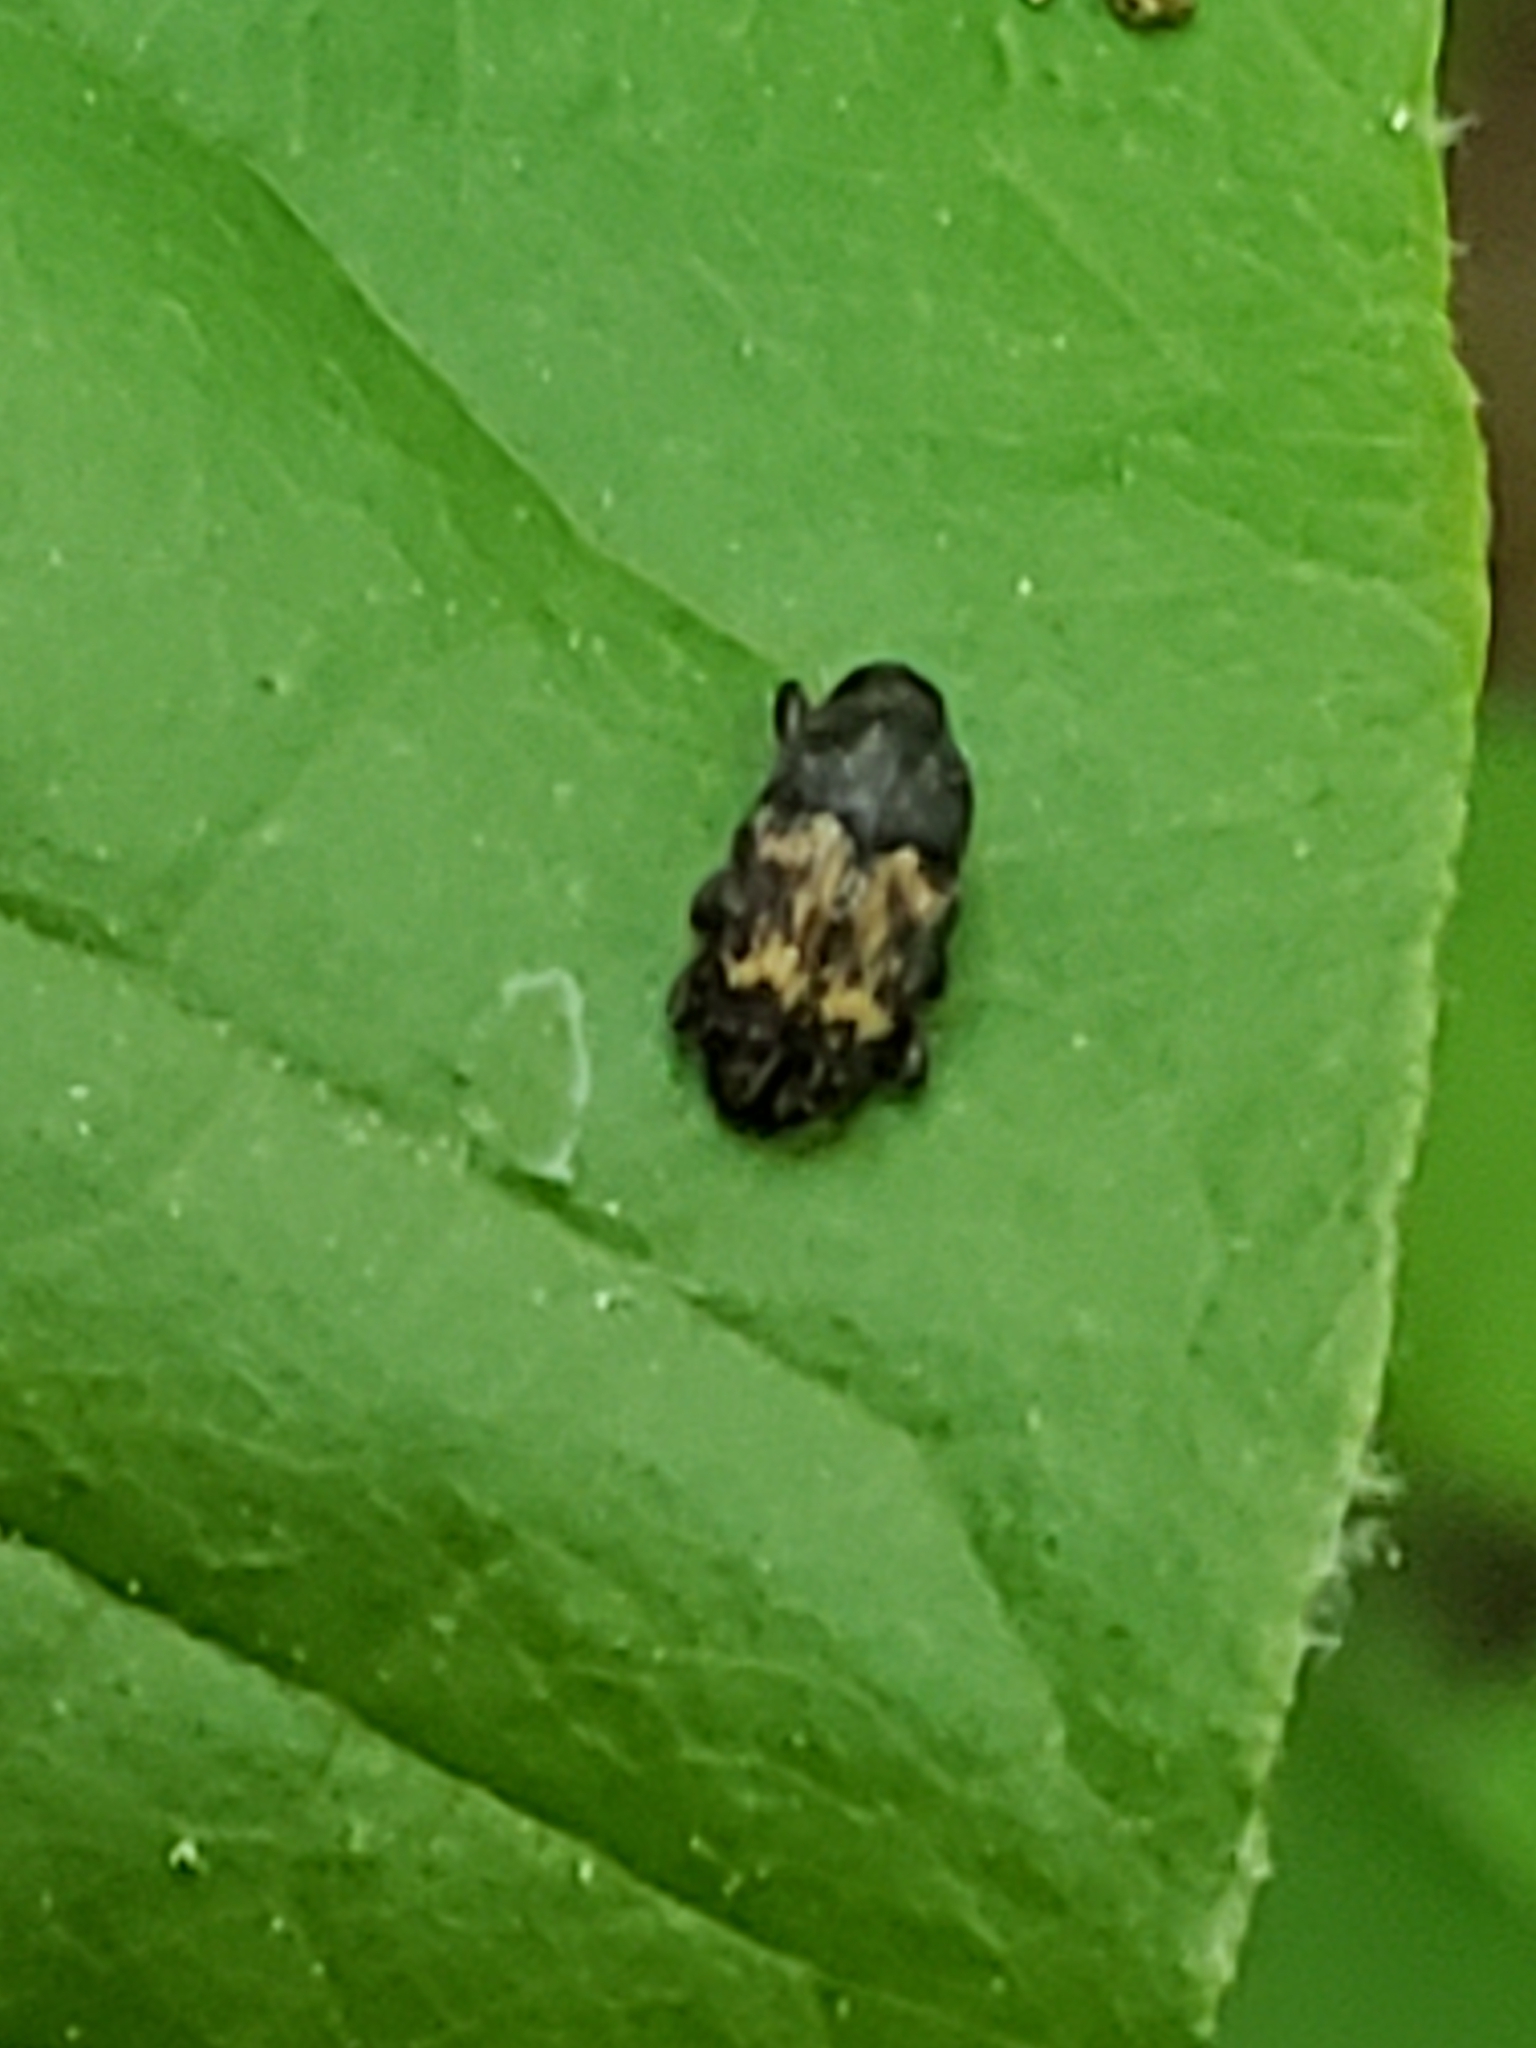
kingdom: Animalia
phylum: Arthropoda
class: Insecta
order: Coleoptera
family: Curculionidae
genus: Glyptobaris
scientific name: Glyptobaris lecontei
